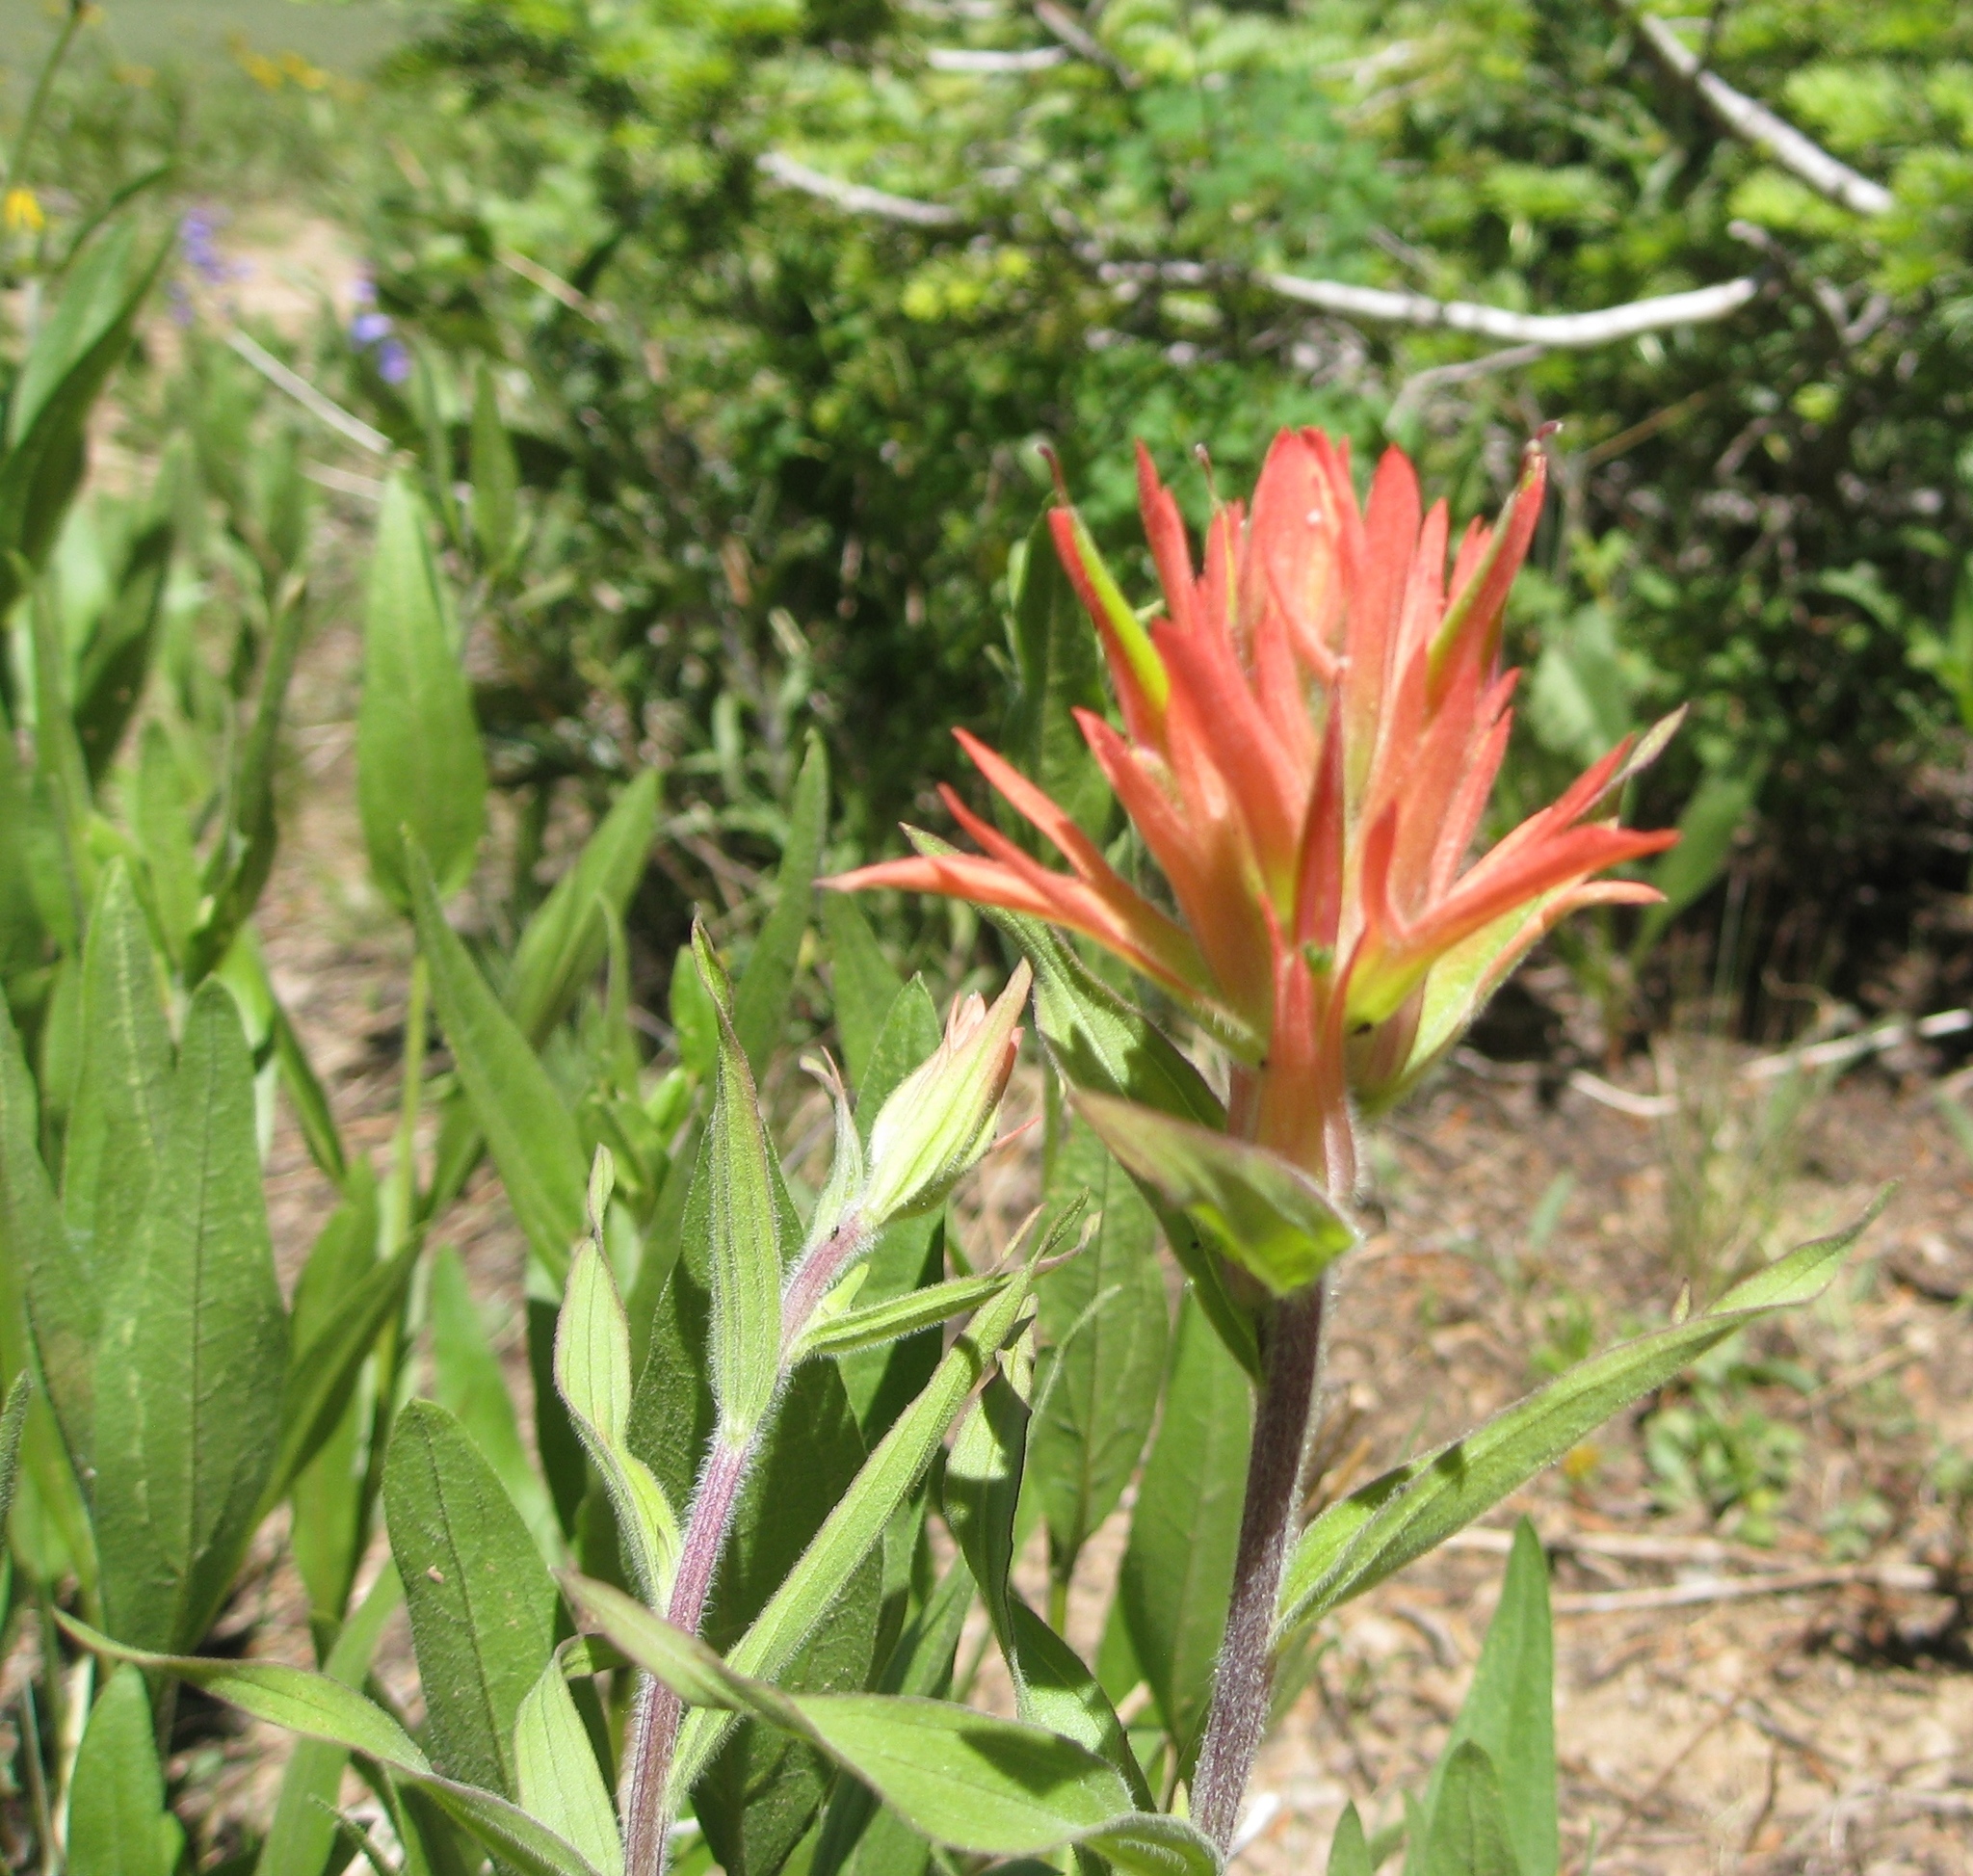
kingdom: Plantae
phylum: Tracheophyta
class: Magnoliopsida
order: Lamiales
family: Orobanchaceae
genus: Castilleja
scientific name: Castilleja miniata
